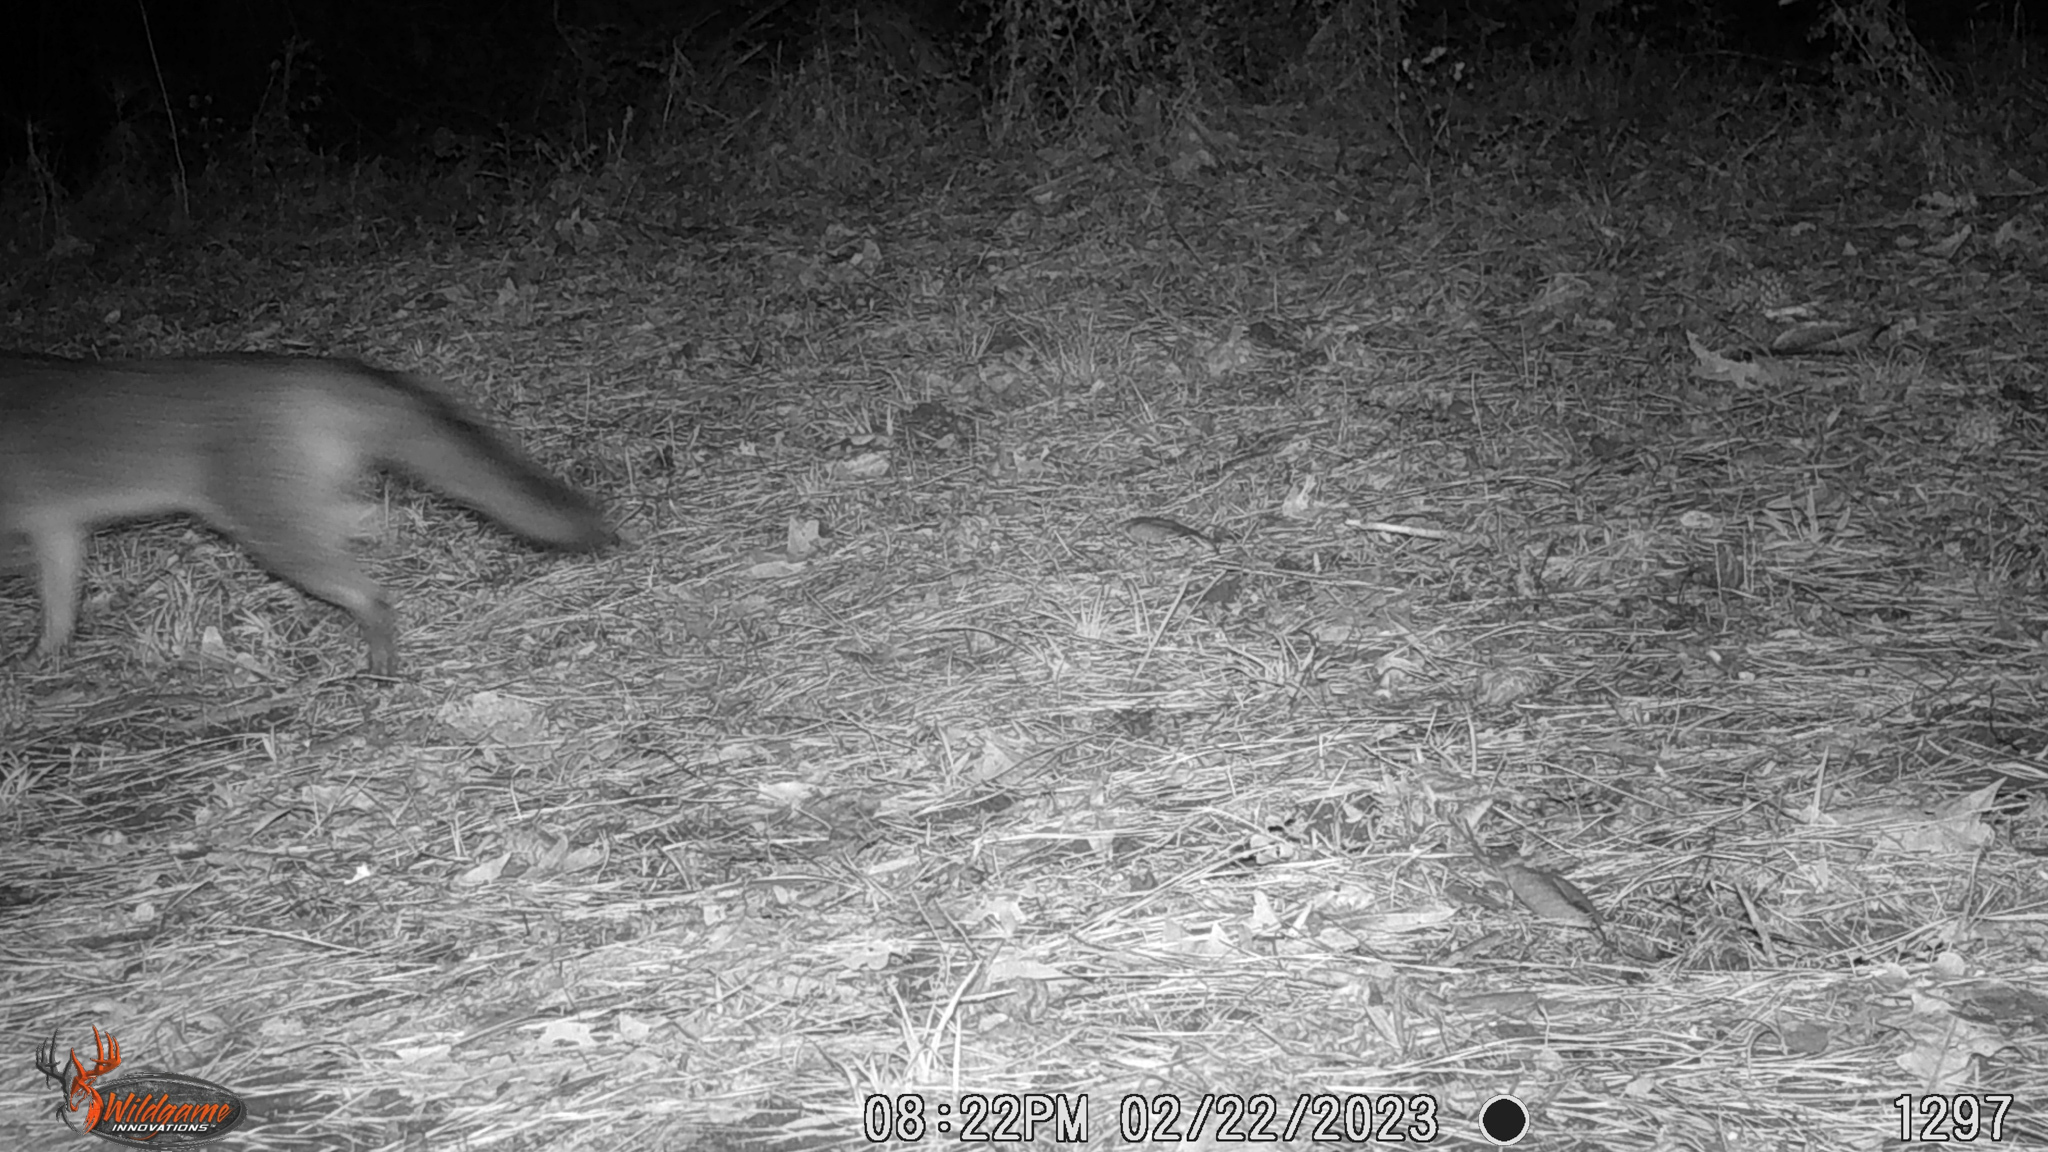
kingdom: Animalia
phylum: Chordata
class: Mammalia
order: Carnivora
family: Canidae
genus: Urocyon
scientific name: Urocyon cinereoargenteus
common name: Gray fox
